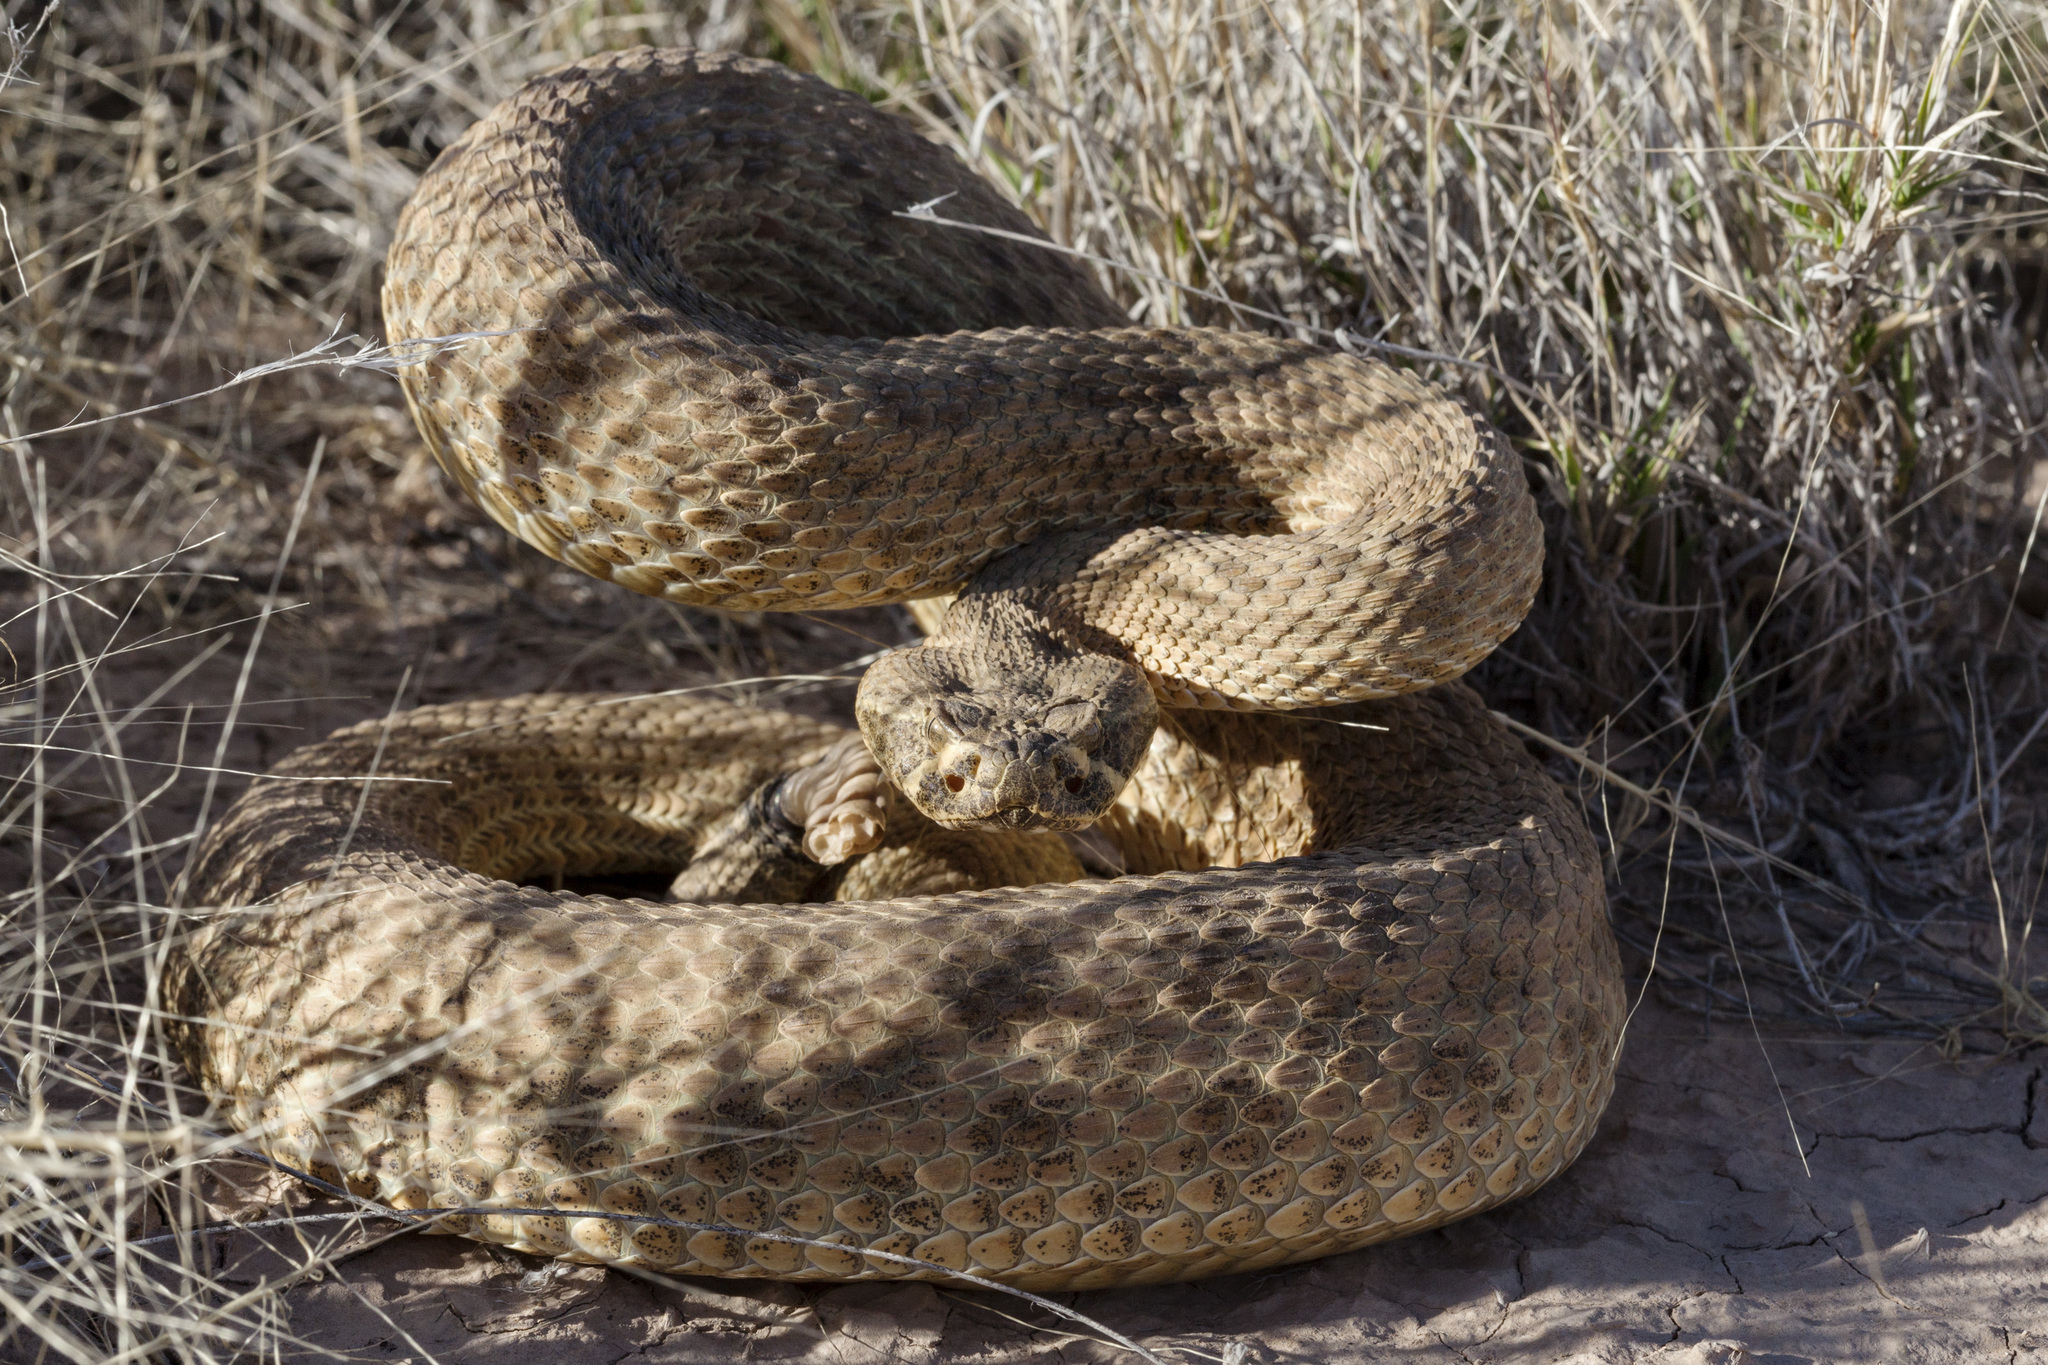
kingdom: Animalia
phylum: Chordata
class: Squamata
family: Viperidae
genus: Crotalus
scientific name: Crotalus viridis
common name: Prairie rattlesnake
